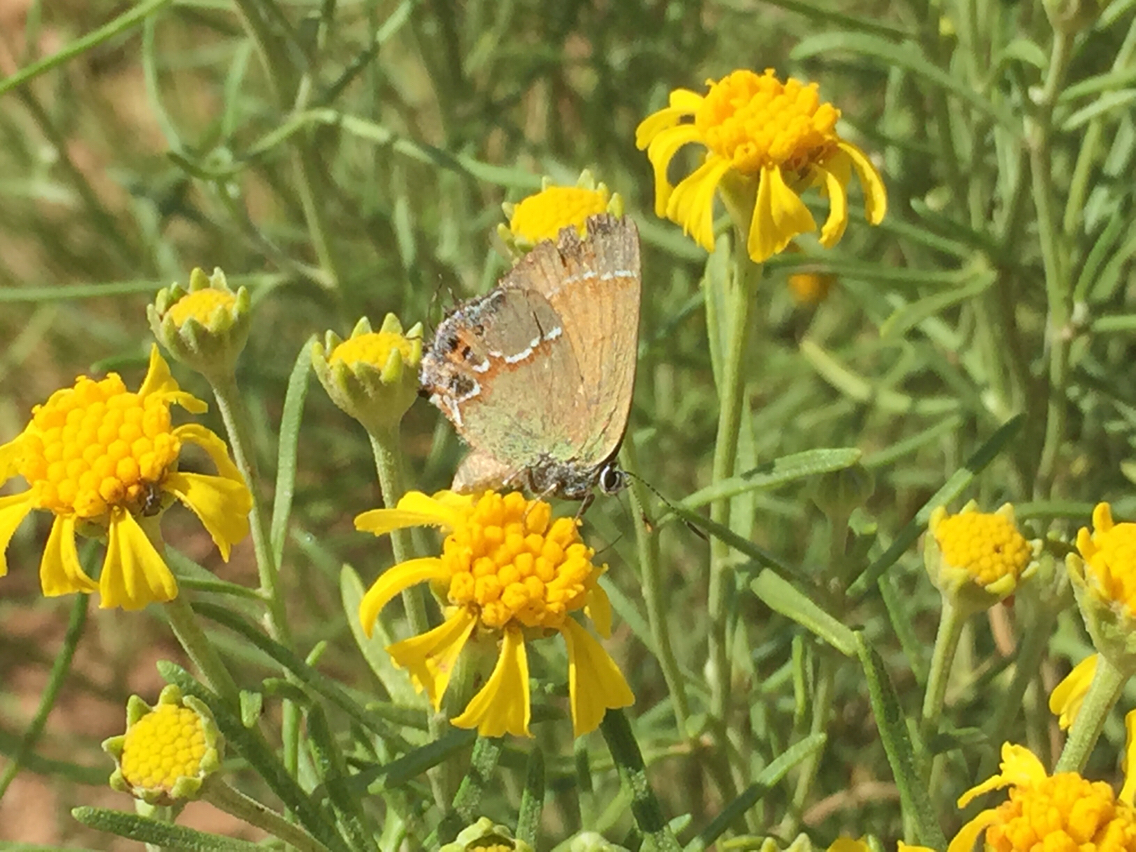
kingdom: Animalia
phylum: Arthropoda
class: Insecta
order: Lepidoptera
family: Lycaenidae
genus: Mitoura
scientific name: Mitoura siva
